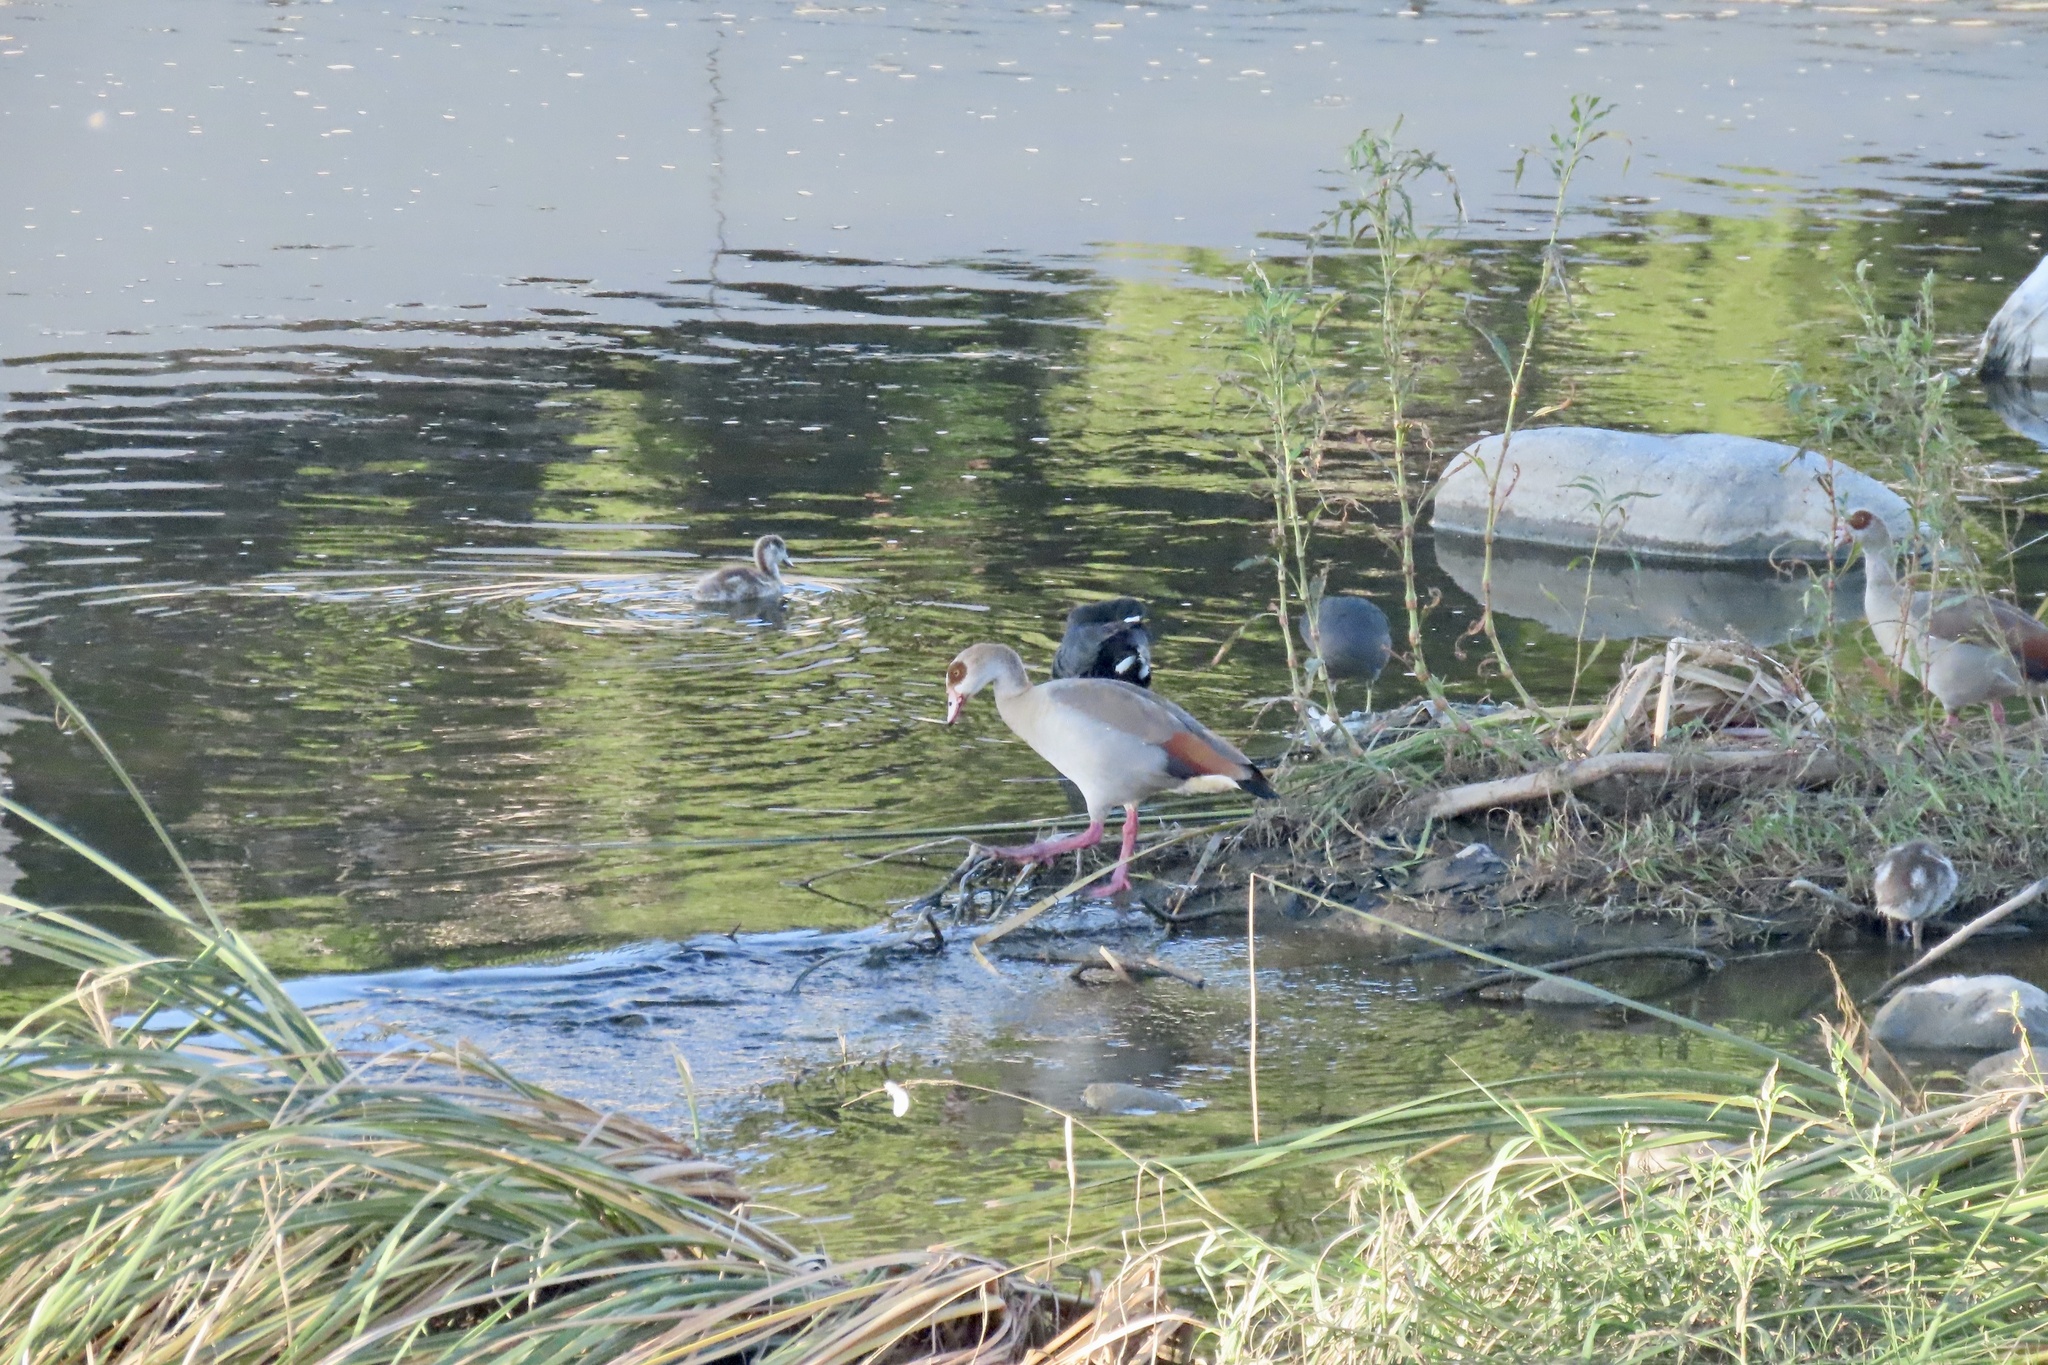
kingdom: Animalia
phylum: Chordata
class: Aves
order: Gruiformes
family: Rallidae
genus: Fulica
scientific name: Fulica americana
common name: American coot
